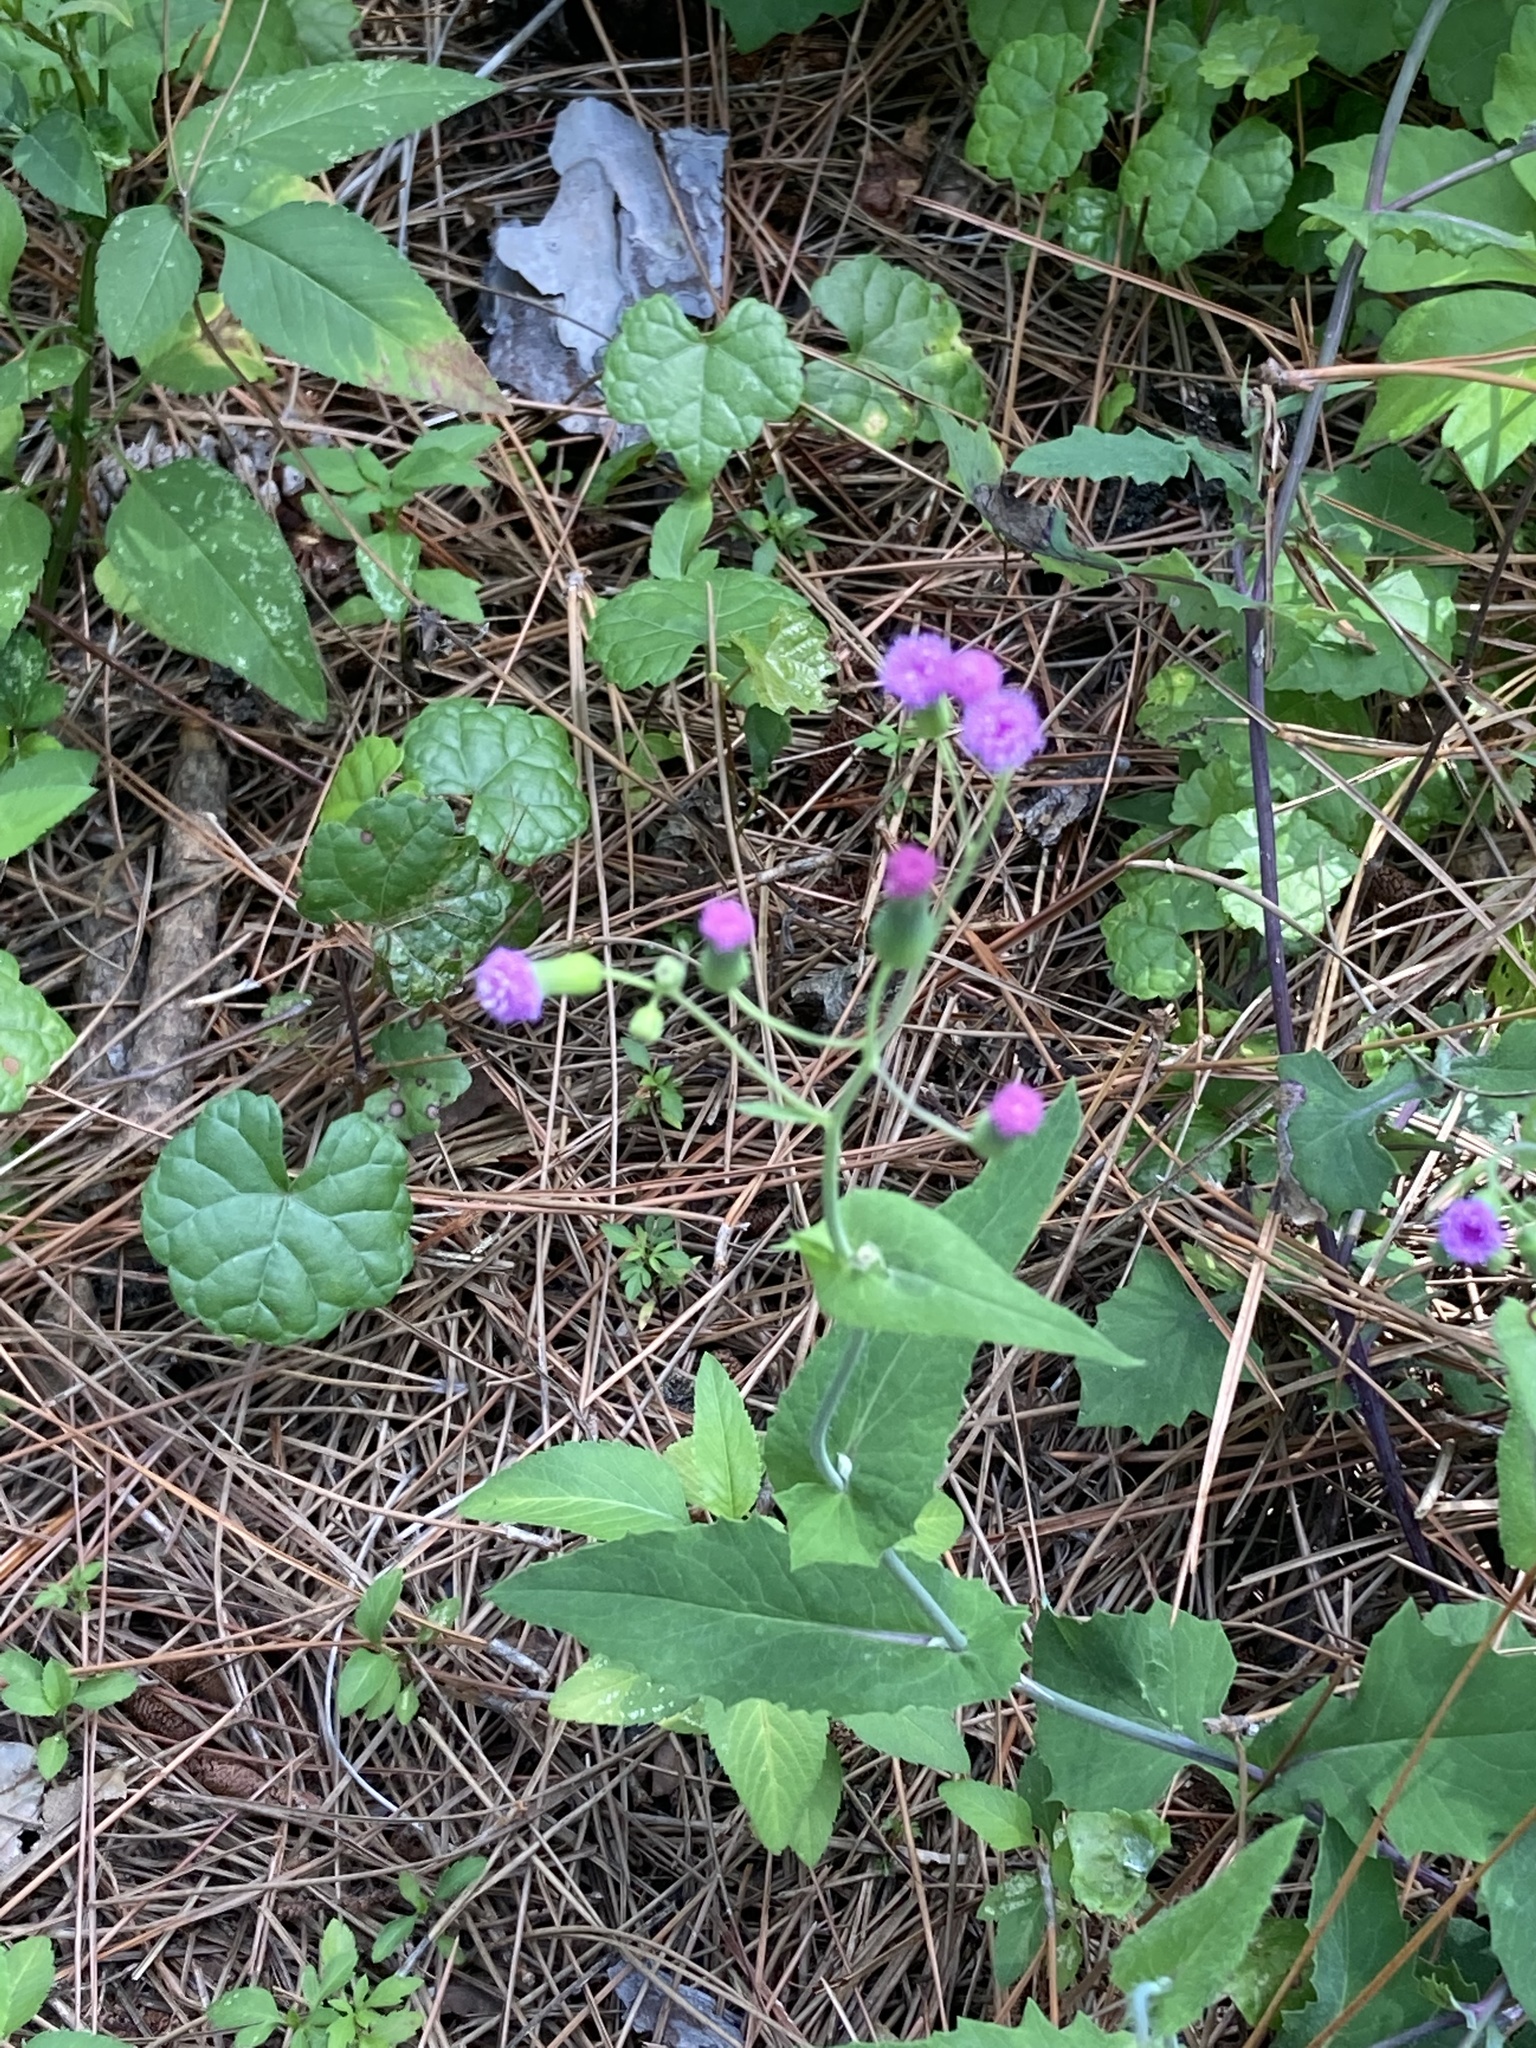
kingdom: Plantae
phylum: Tracheophyta
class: Magnoliopsida
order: Asterales
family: Asteraceae
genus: Emilia
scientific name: Emilia sonchifolia
